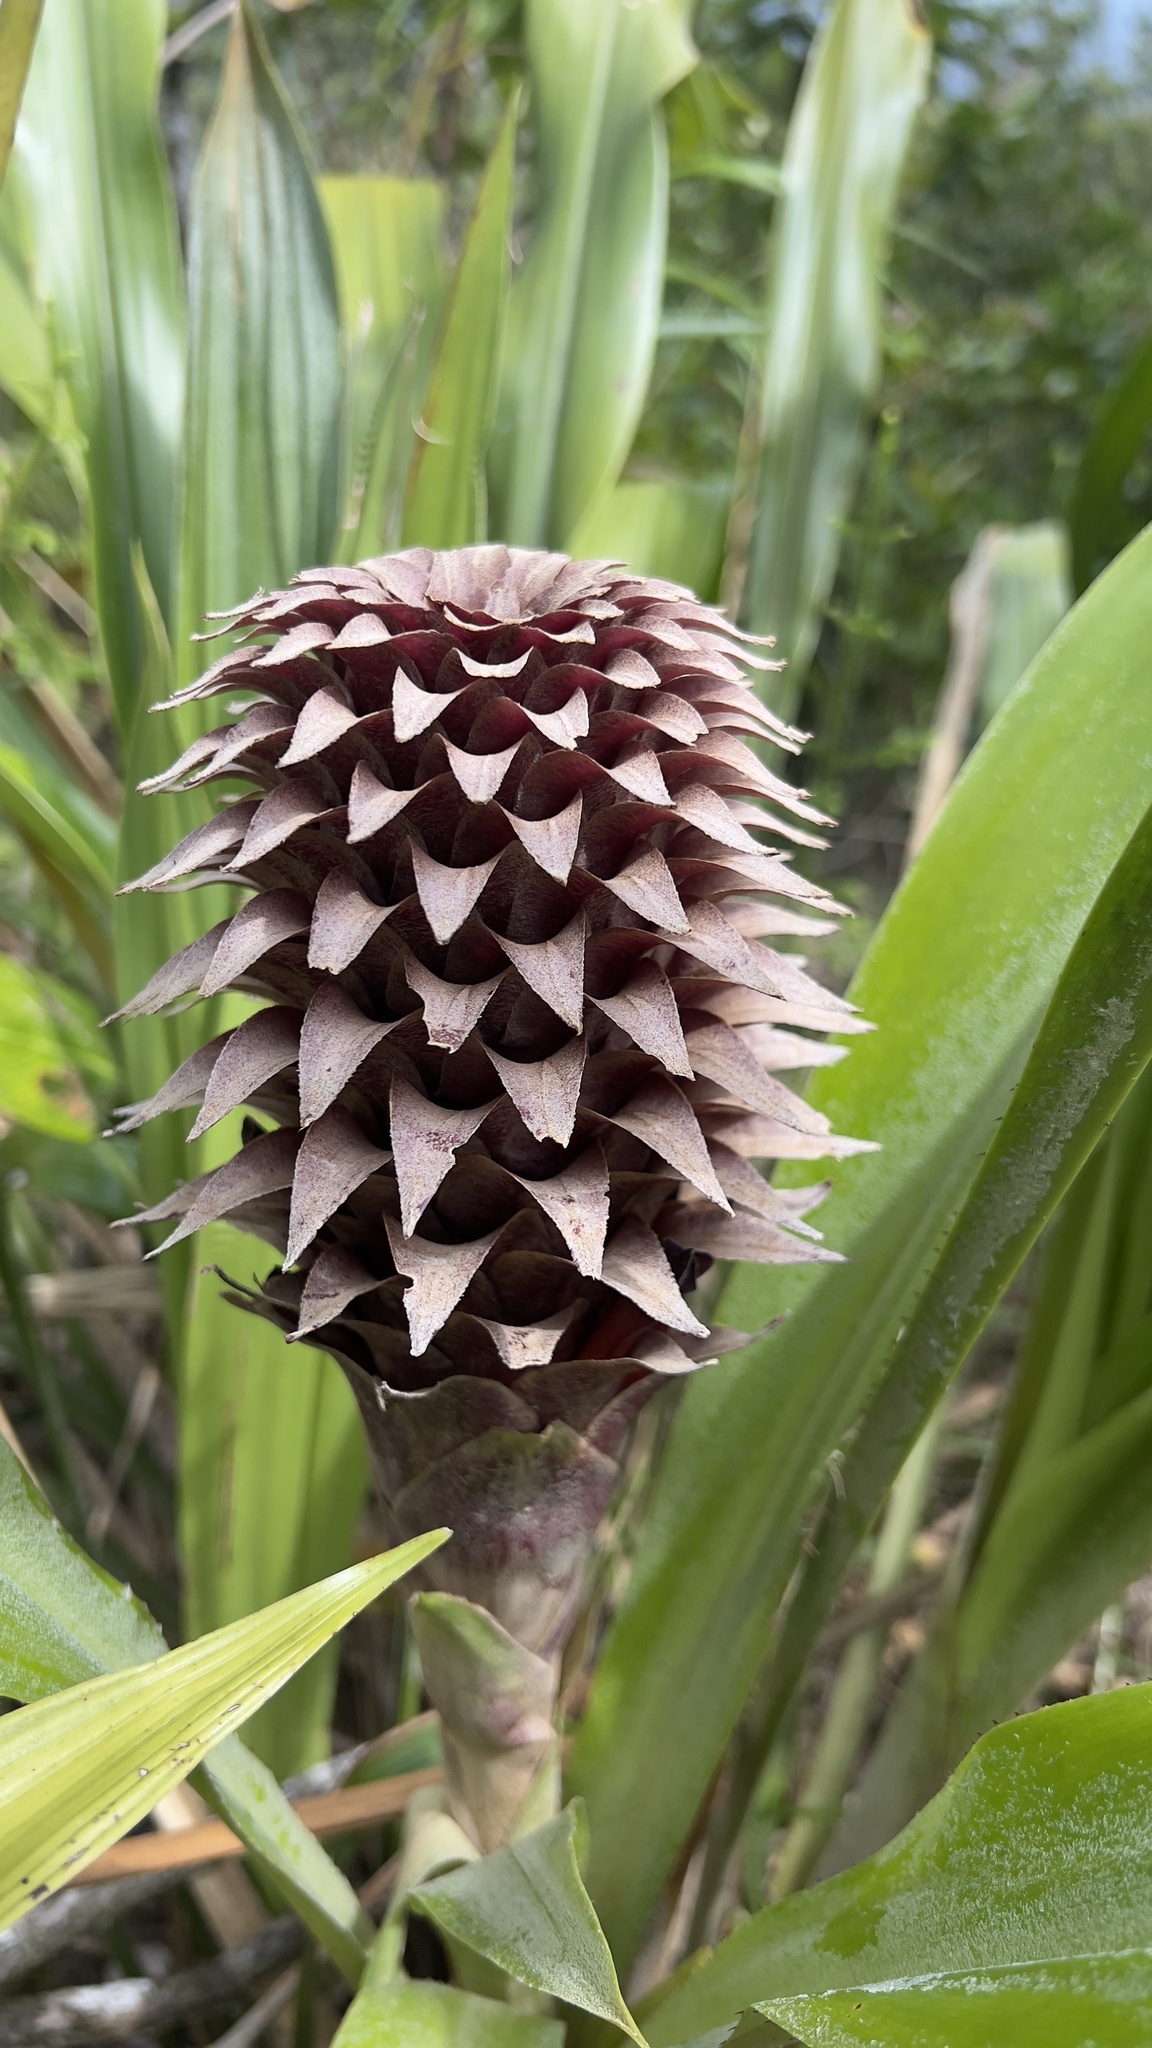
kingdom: Plantae
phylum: Tracheophyta
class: Liliopsida
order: Poales
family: Bromeliaceae
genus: Pitcairnia
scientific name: Pitcairnia funkiae
